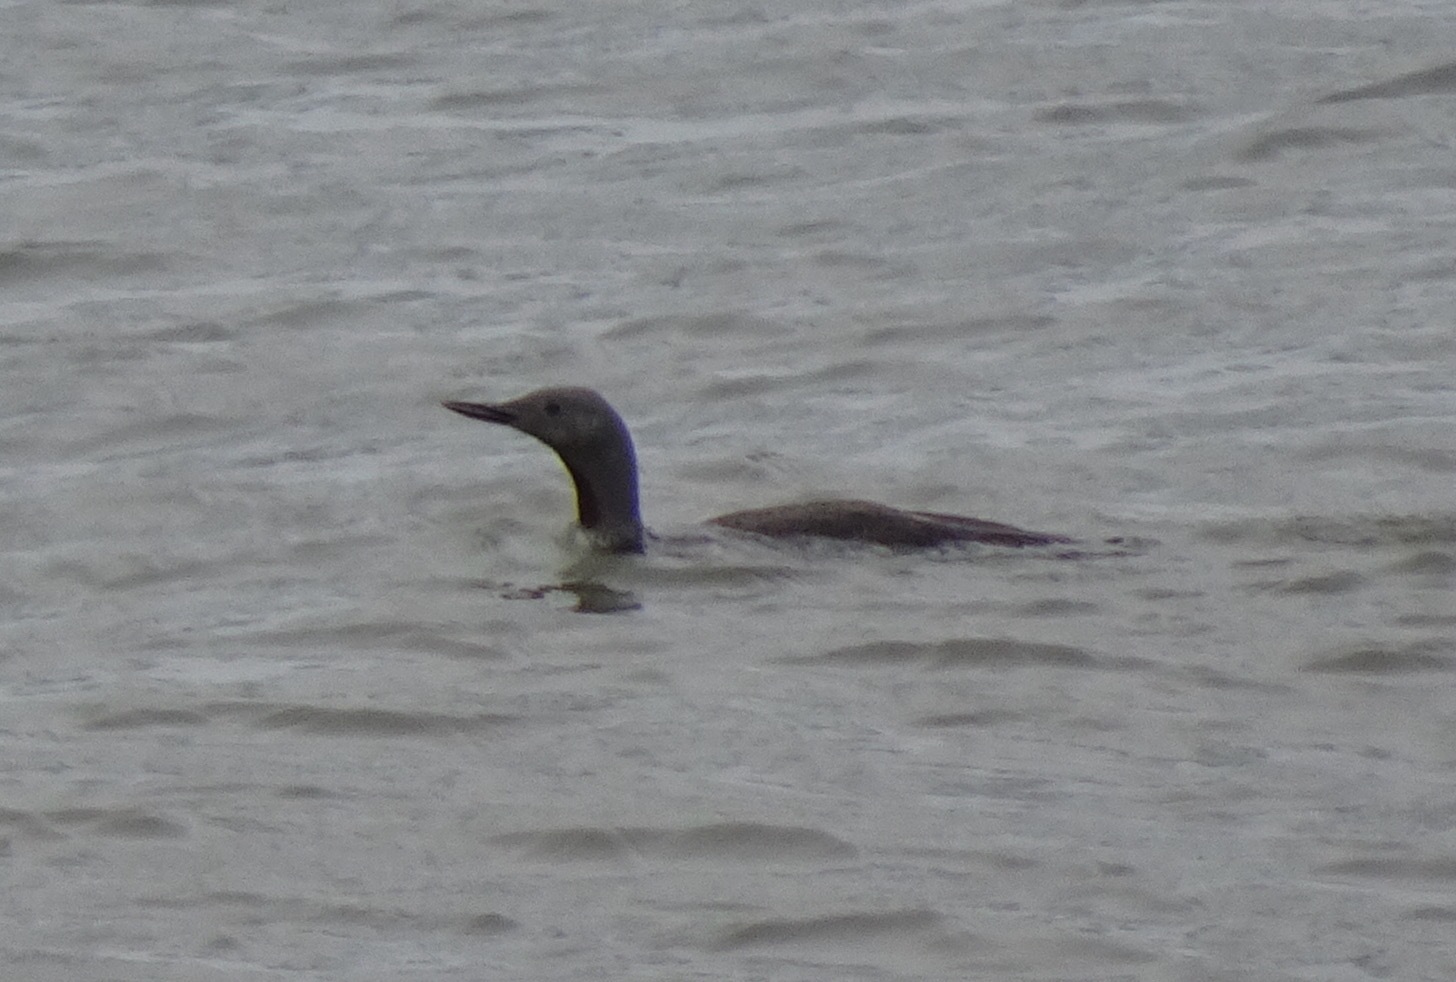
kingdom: Animalia
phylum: Chordata
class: Aves
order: Gaviiformes
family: Gaviidae
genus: Gavia
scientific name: Gavia stellata
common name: Red-throated loon
